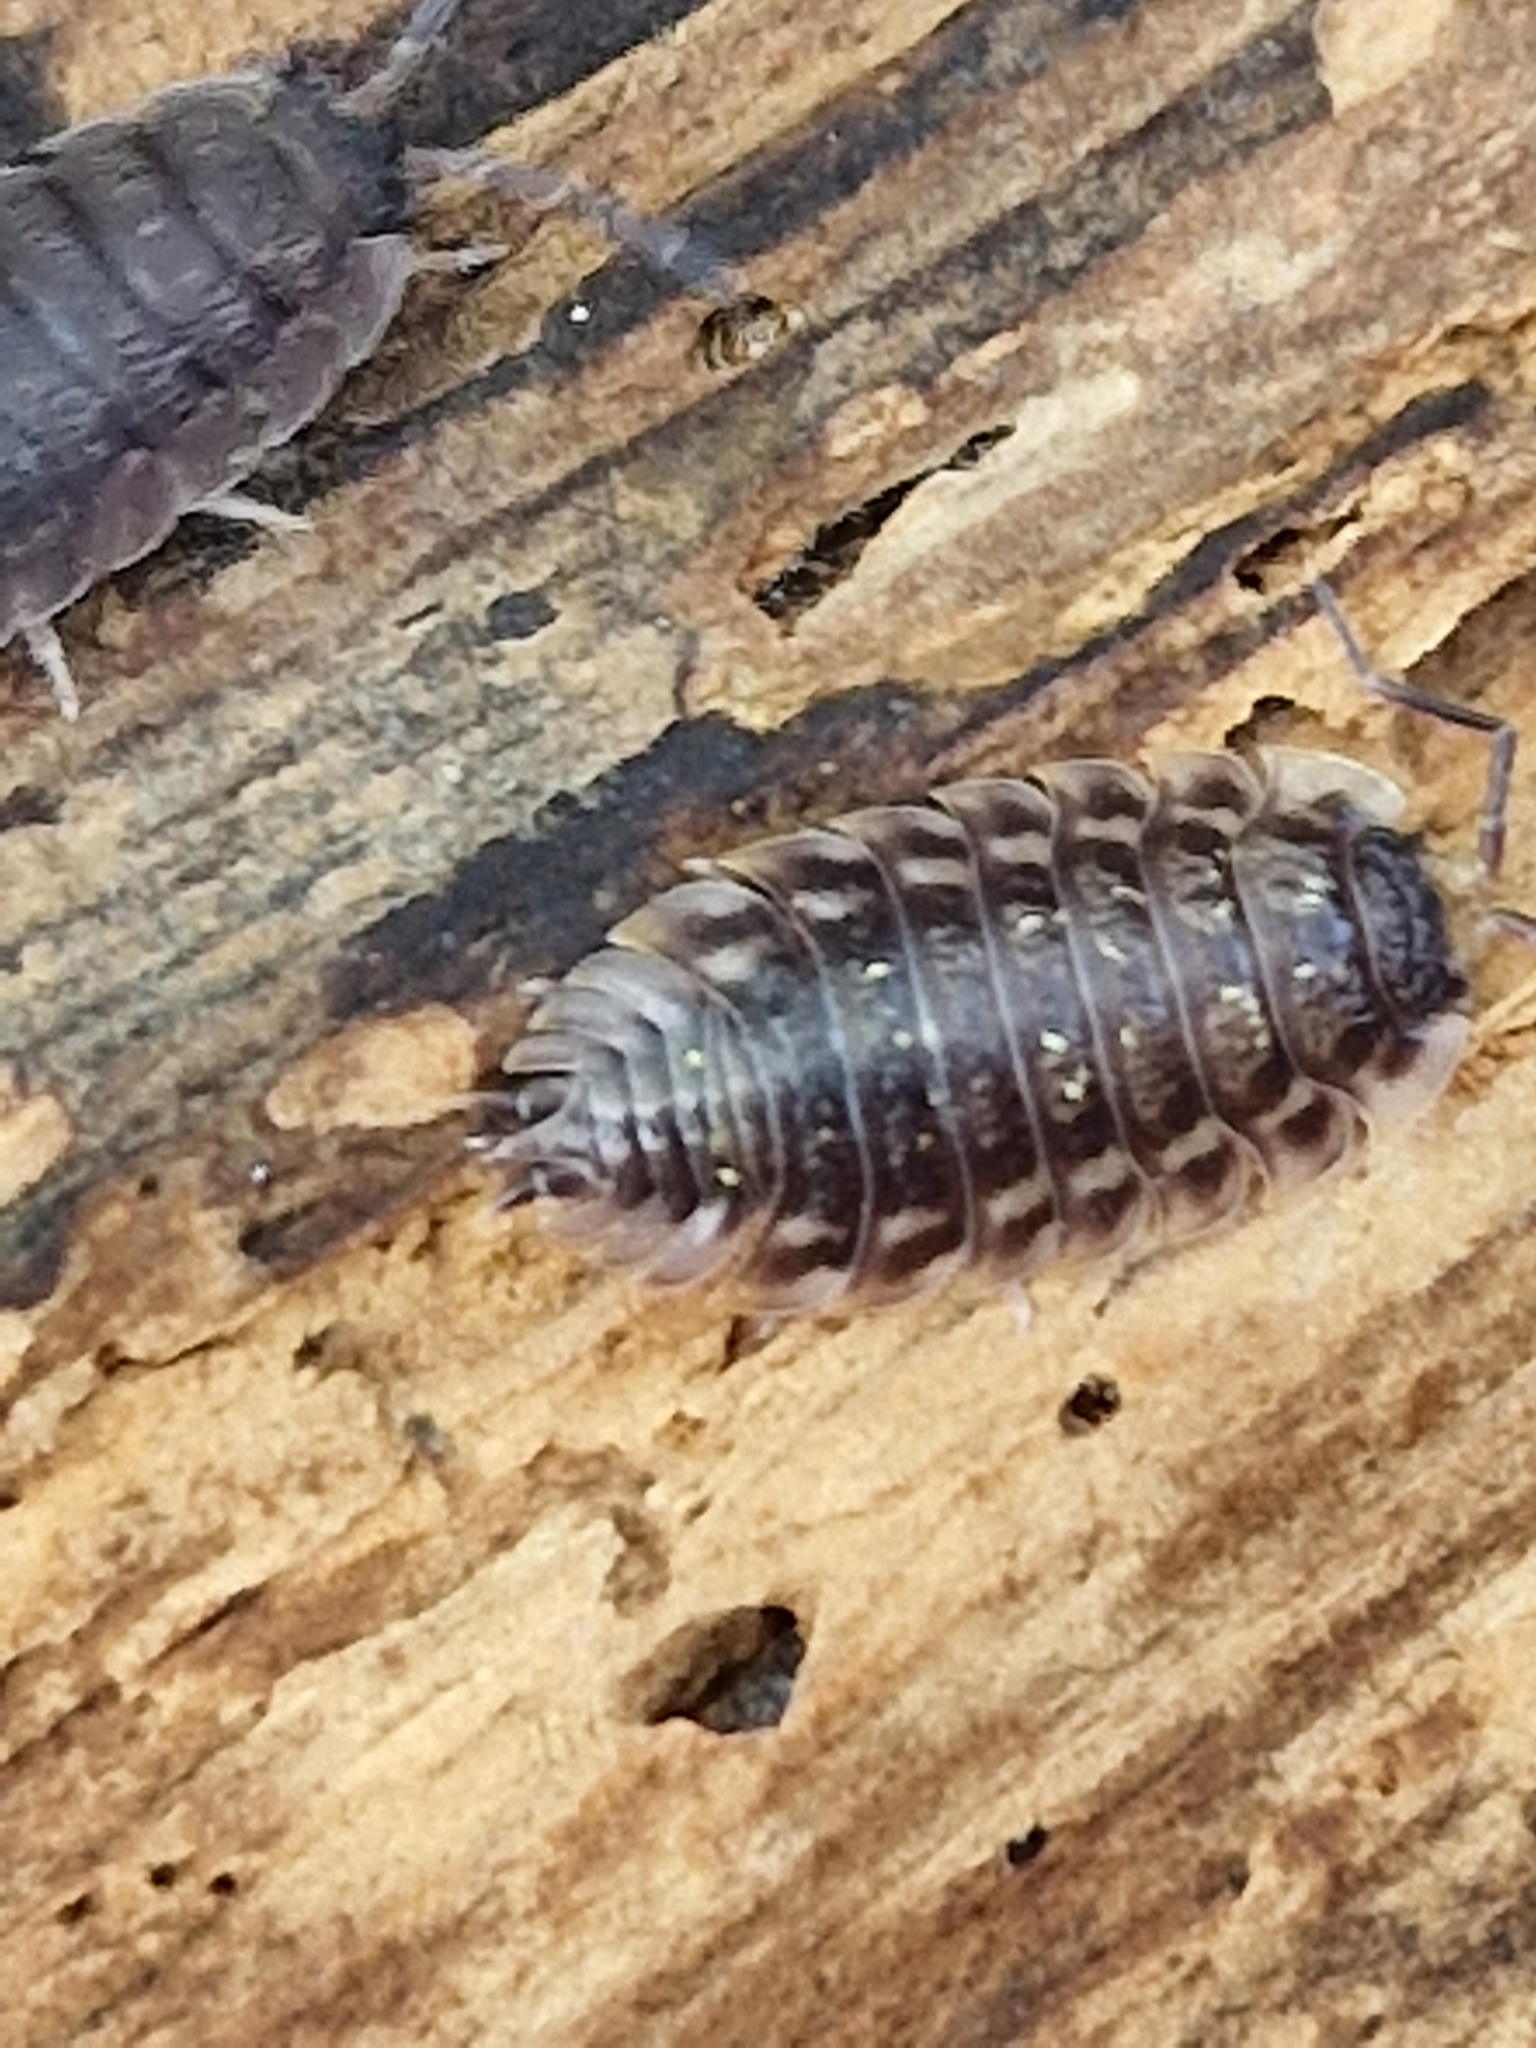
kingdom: Animalia
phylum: Arthropoda
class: Malacostraca
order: Isopoda
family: Oniscidae
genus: Oniscus
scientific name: Oniscus asellus
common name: Common shiny woodlouse
